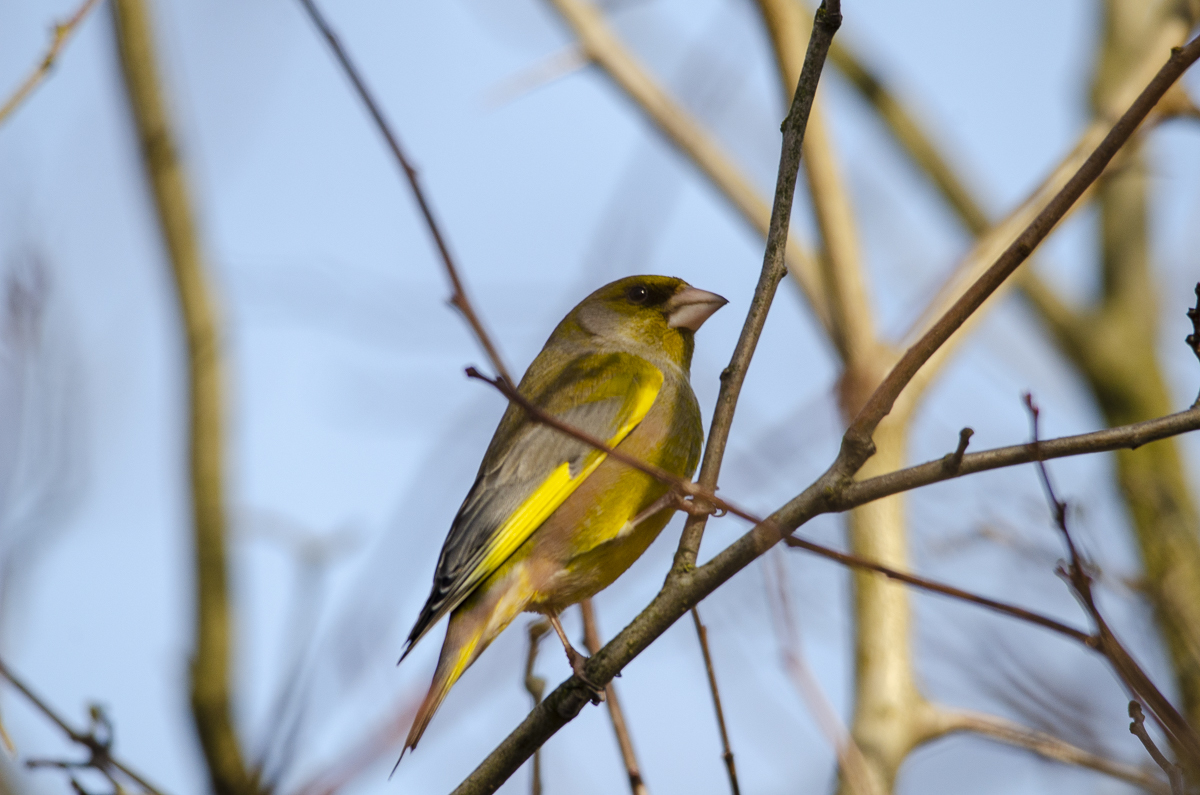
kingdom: Plantae
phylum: Tracheophyta
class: Liliopsida
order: Poales
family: Poaceae
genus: Chloris
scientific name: Chloris chloris
